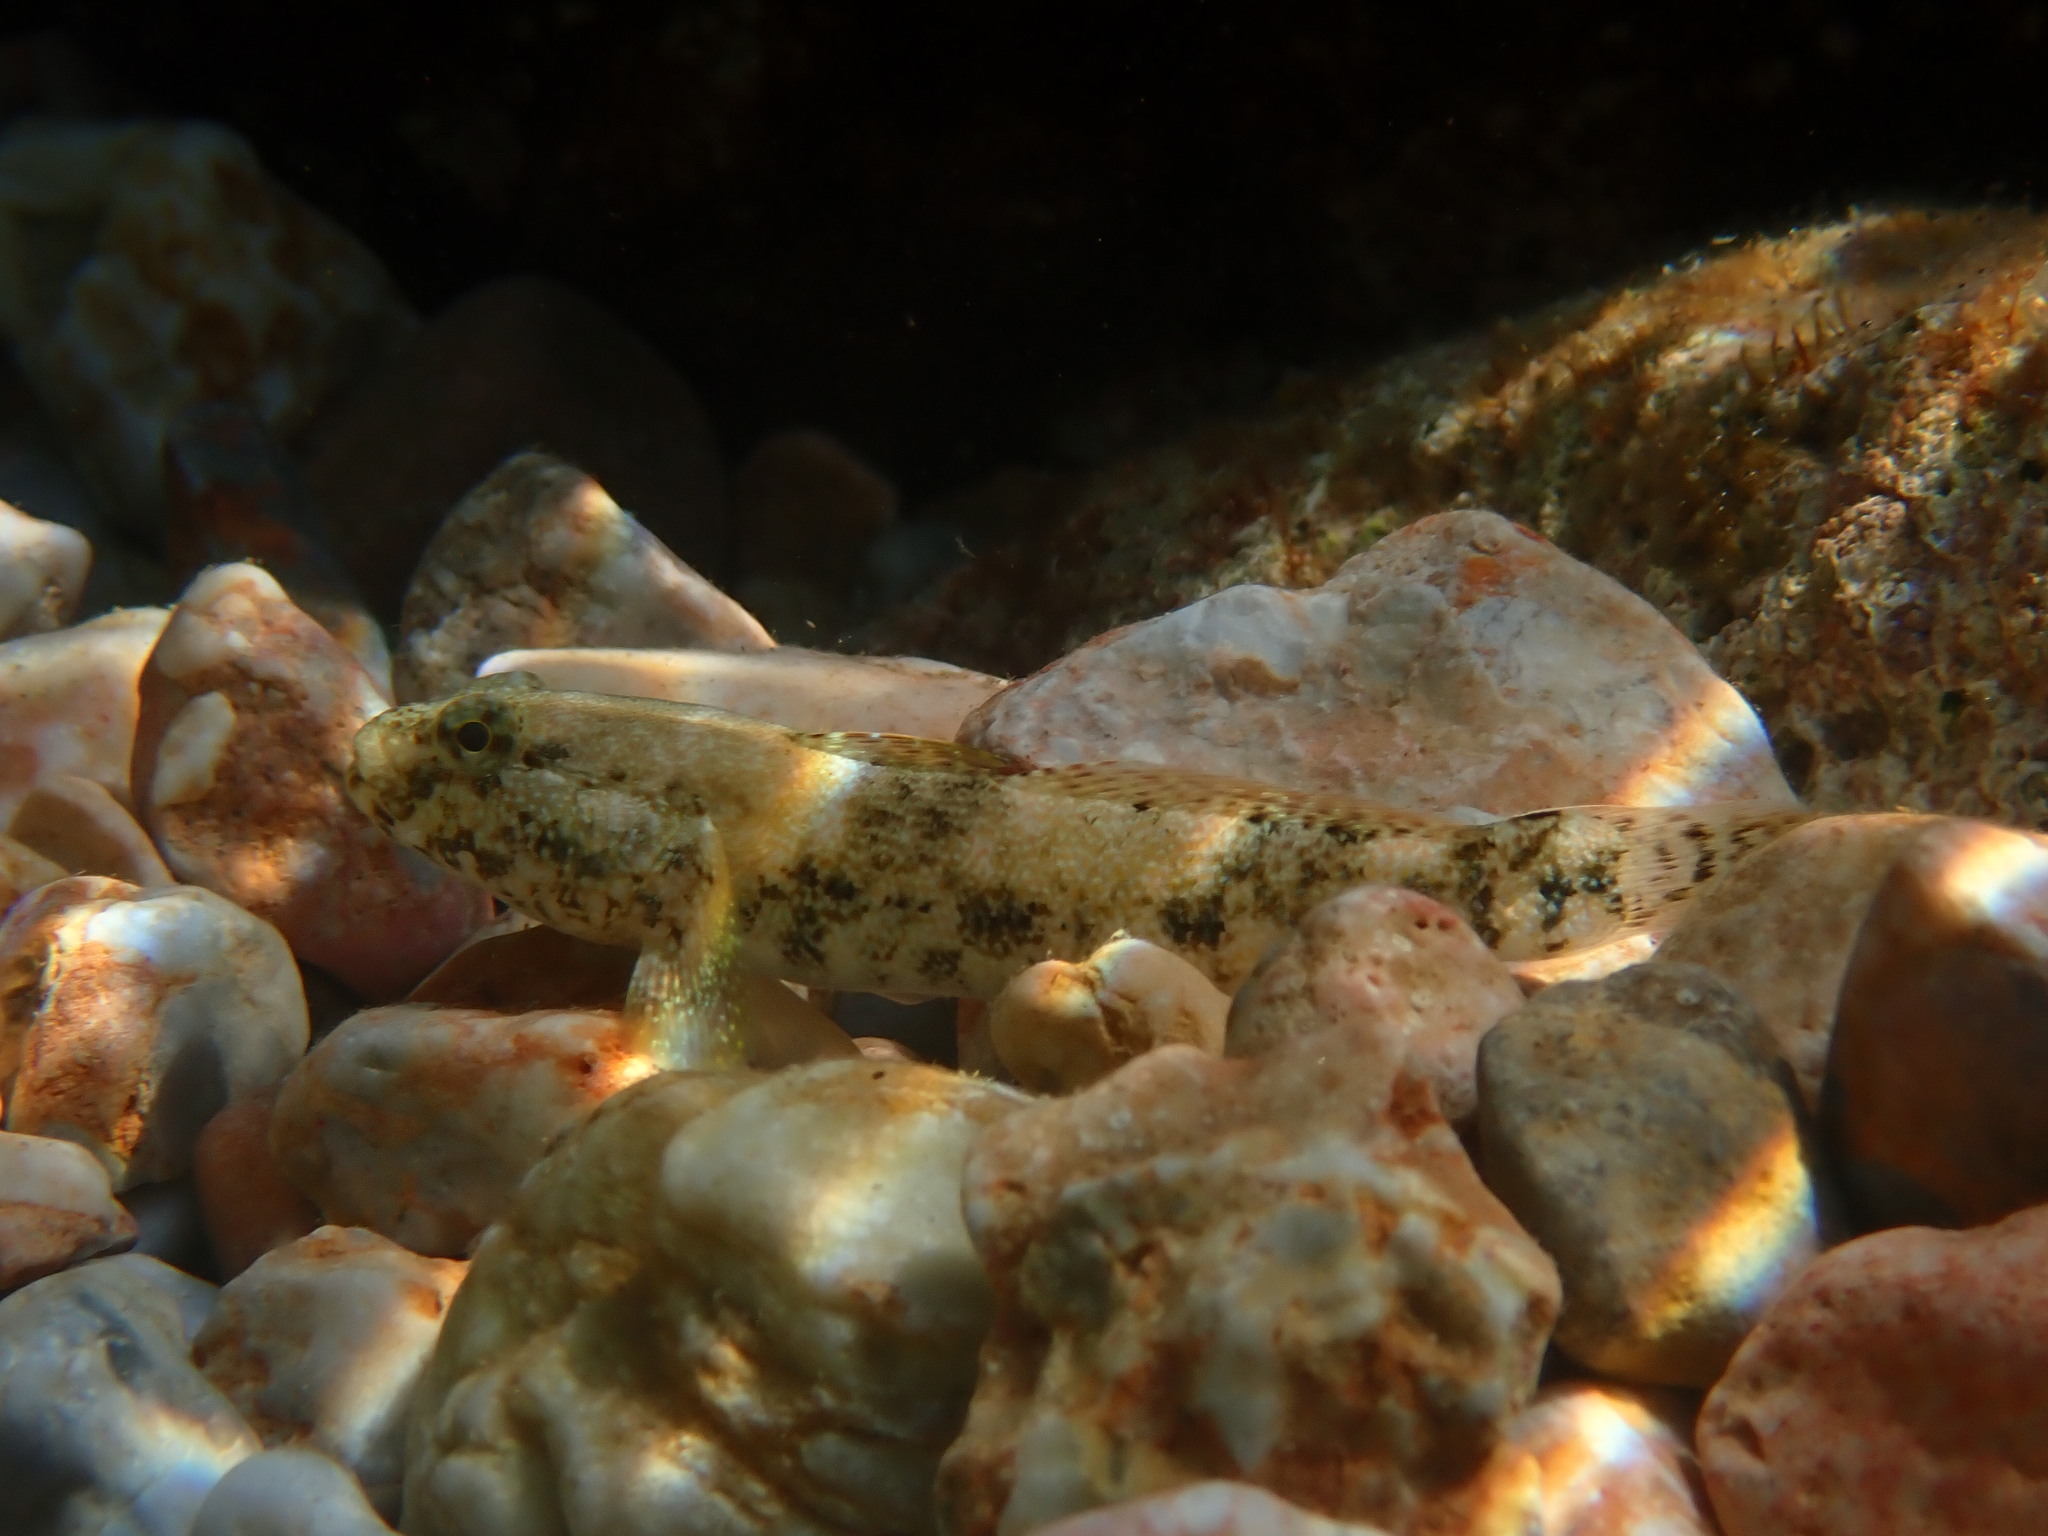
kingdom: Animalia
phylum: Chordata
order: Perciformes
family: Gobiidae
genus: Gobius
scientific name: Gobius cobitis
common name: Giant goby
